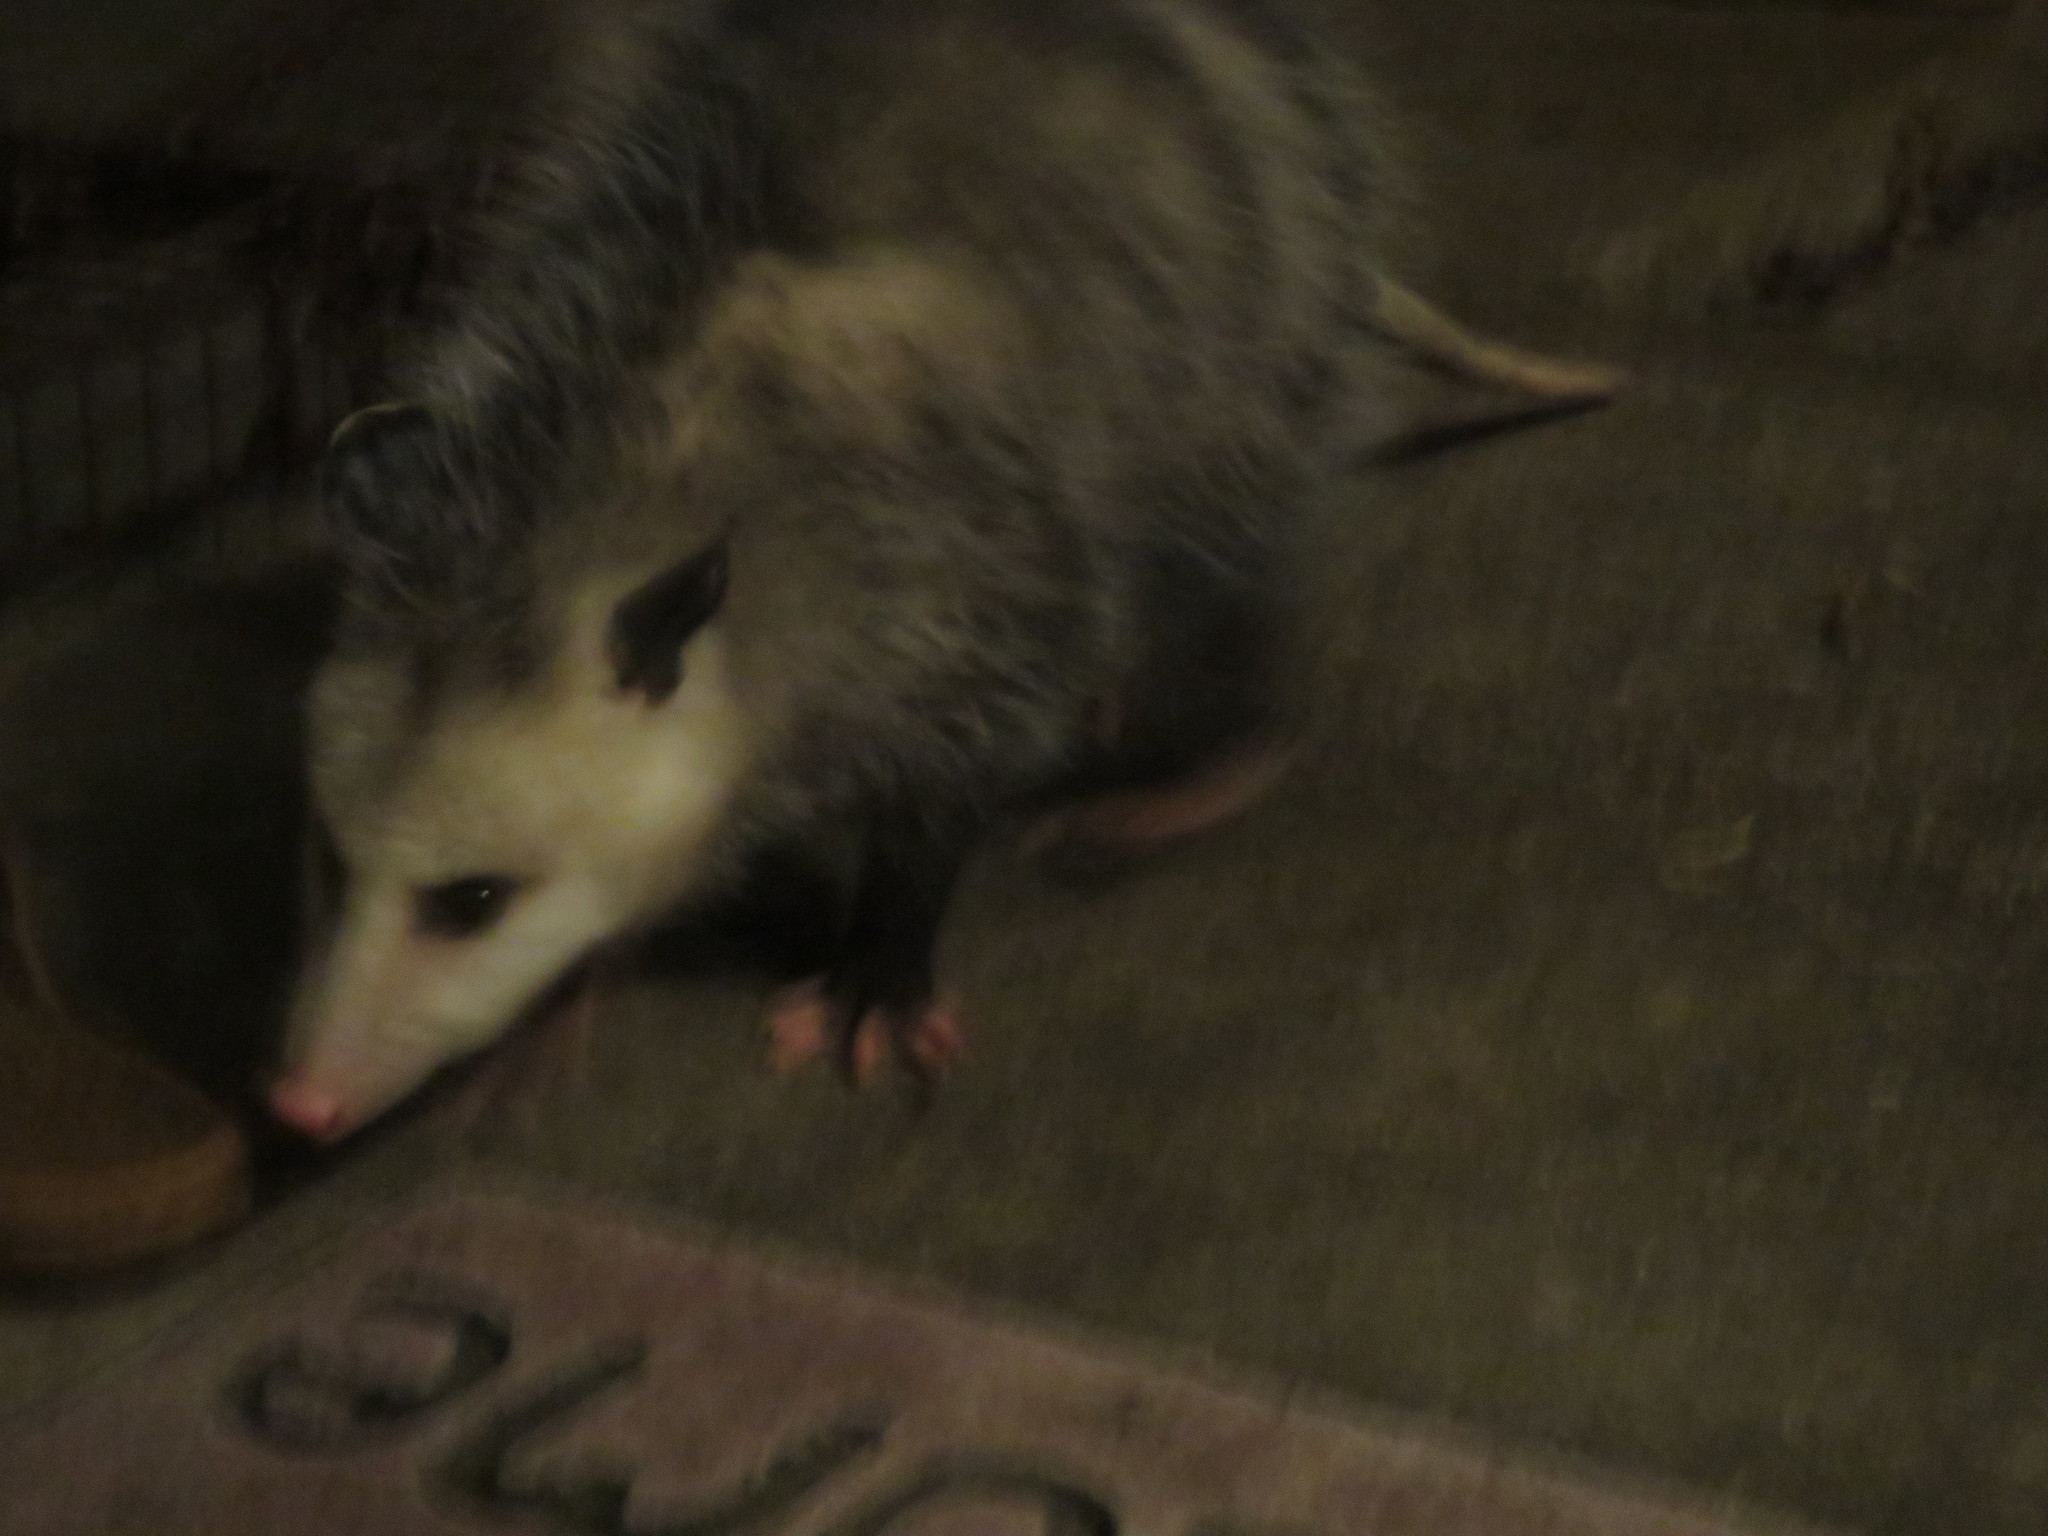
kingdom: Animalia
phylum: Chordata
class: Mammalia
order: Didelphimorphia
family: Didelphidae
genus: Didelphis
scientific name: Didelphis virginiana
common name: Virginia opossum
